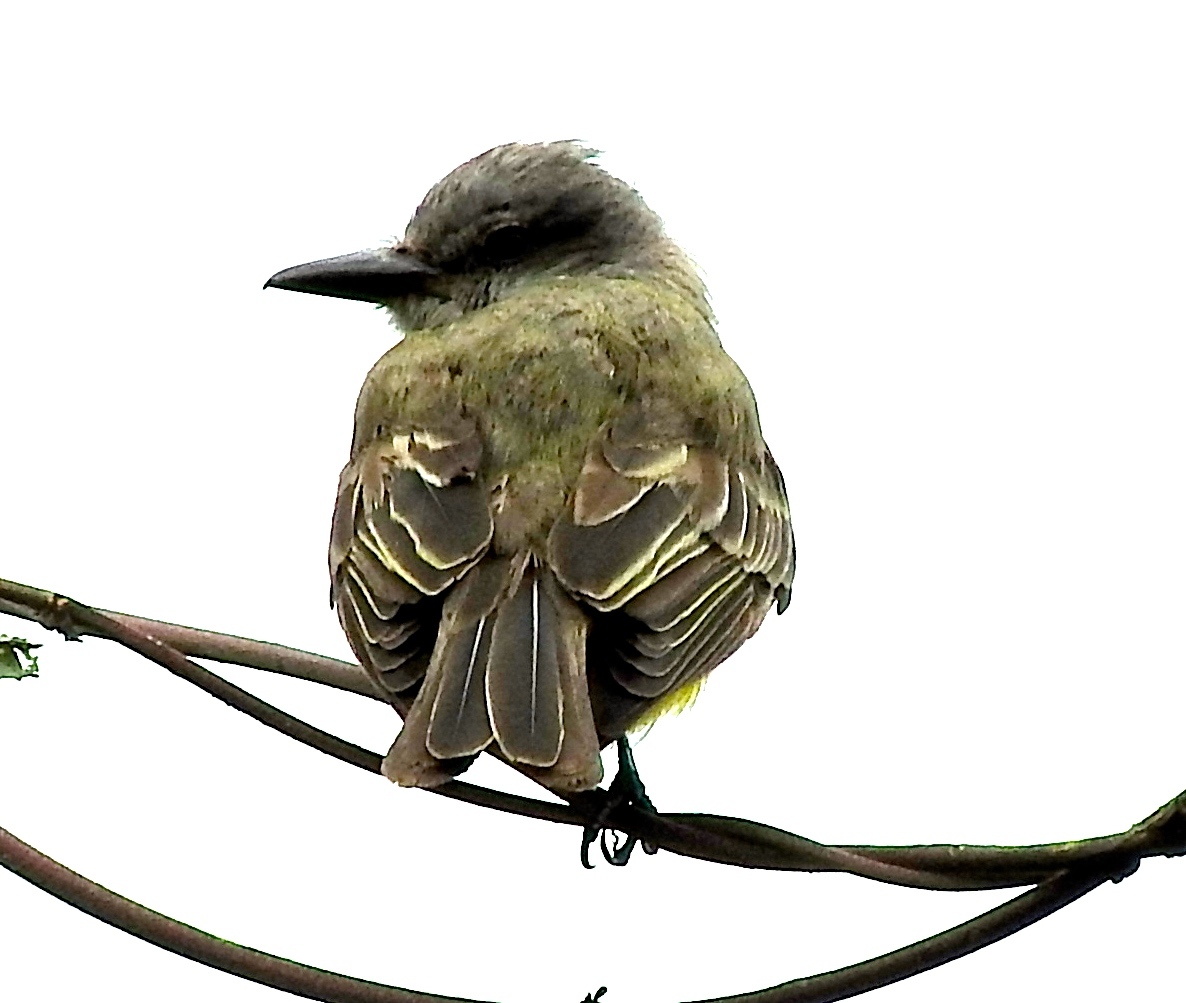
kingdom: Animalia
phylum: Chordata
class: Aves
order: Passeriformes
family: Tyrannidae
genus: Tyrannus
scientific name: Tyrannus melancholicus
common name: Tropical kingbird
